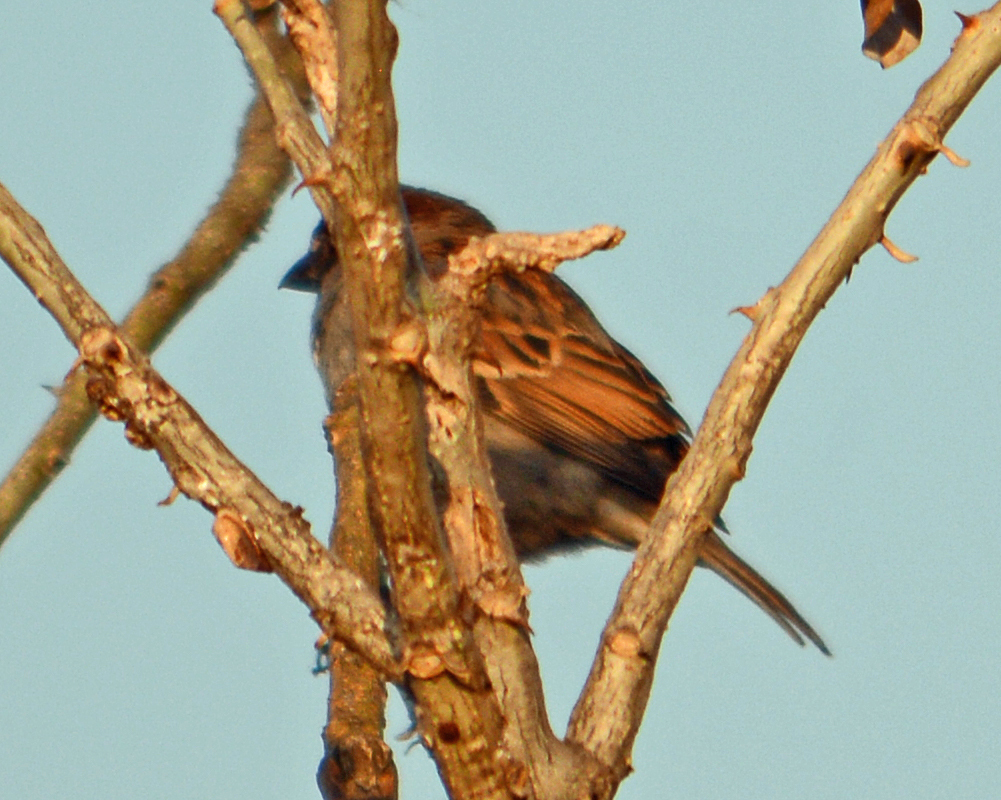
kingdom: Animalia
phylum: Chordata
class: Aves
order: Passeriformes
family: Passeridae
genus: Passer
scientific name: Passer domesticus
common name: House sparrow
